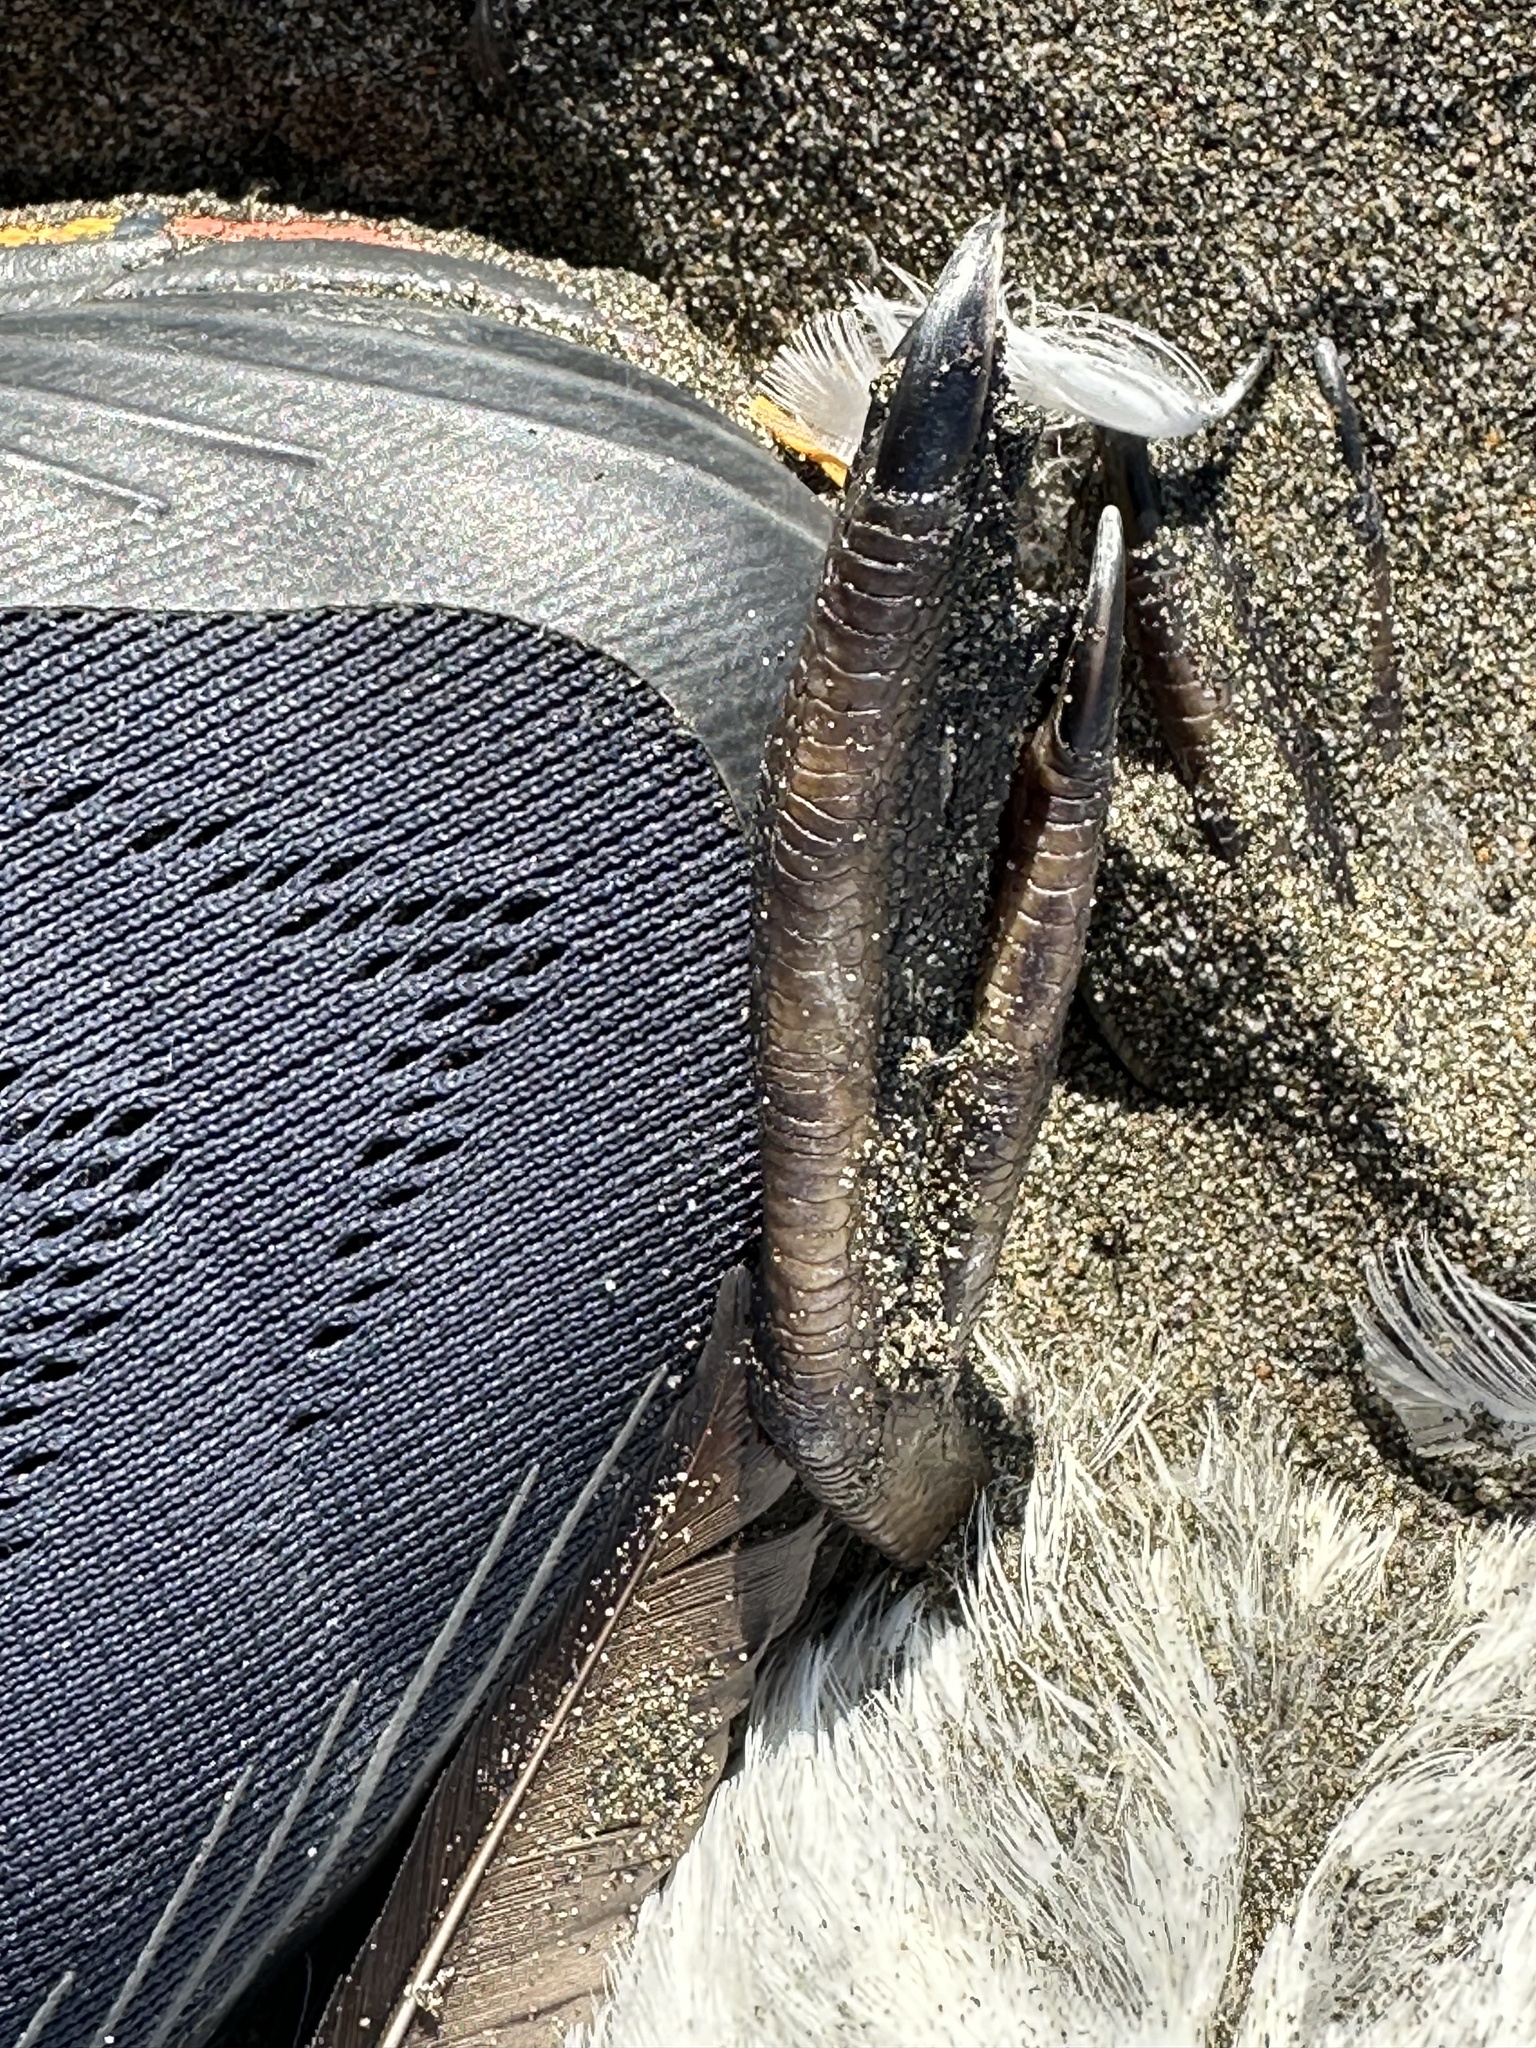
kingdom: Animalia
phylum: Chordata
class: Aves
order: Charadriiformes
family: Alcidae
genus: Uria
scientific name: Uria aalge
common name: Common murre
